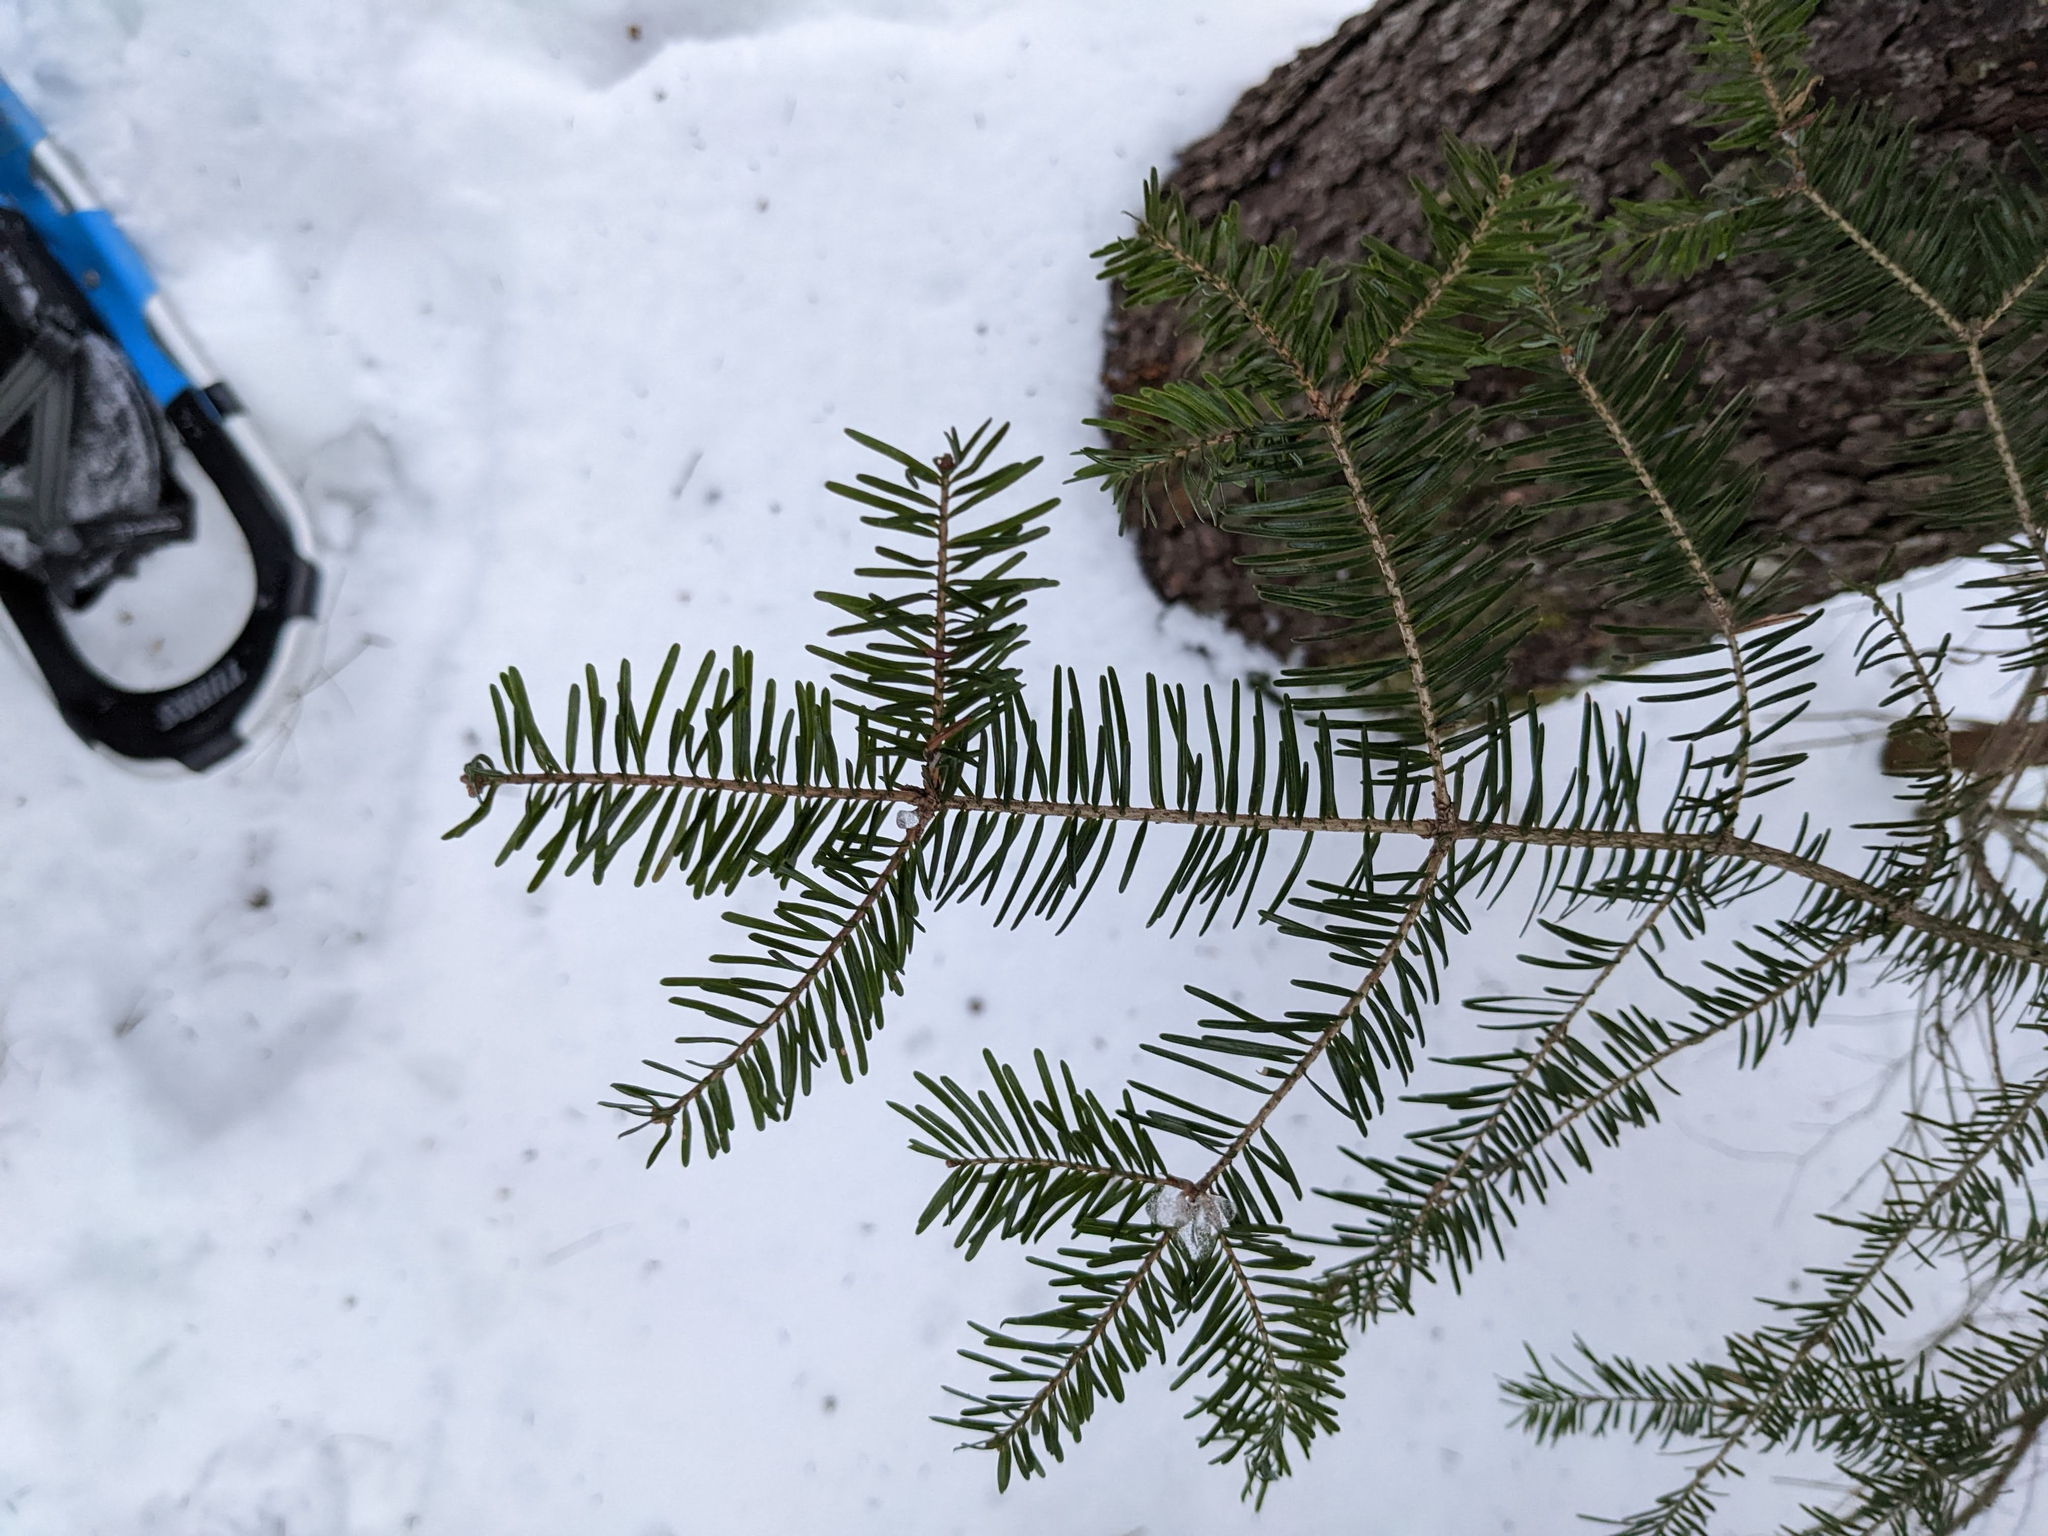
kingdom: Plantae
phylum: Tracheophyta
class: Pinopsida
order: Pinales
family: Pinaceae
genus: Abies
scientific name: Abies balsamea
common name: Balsam fir
